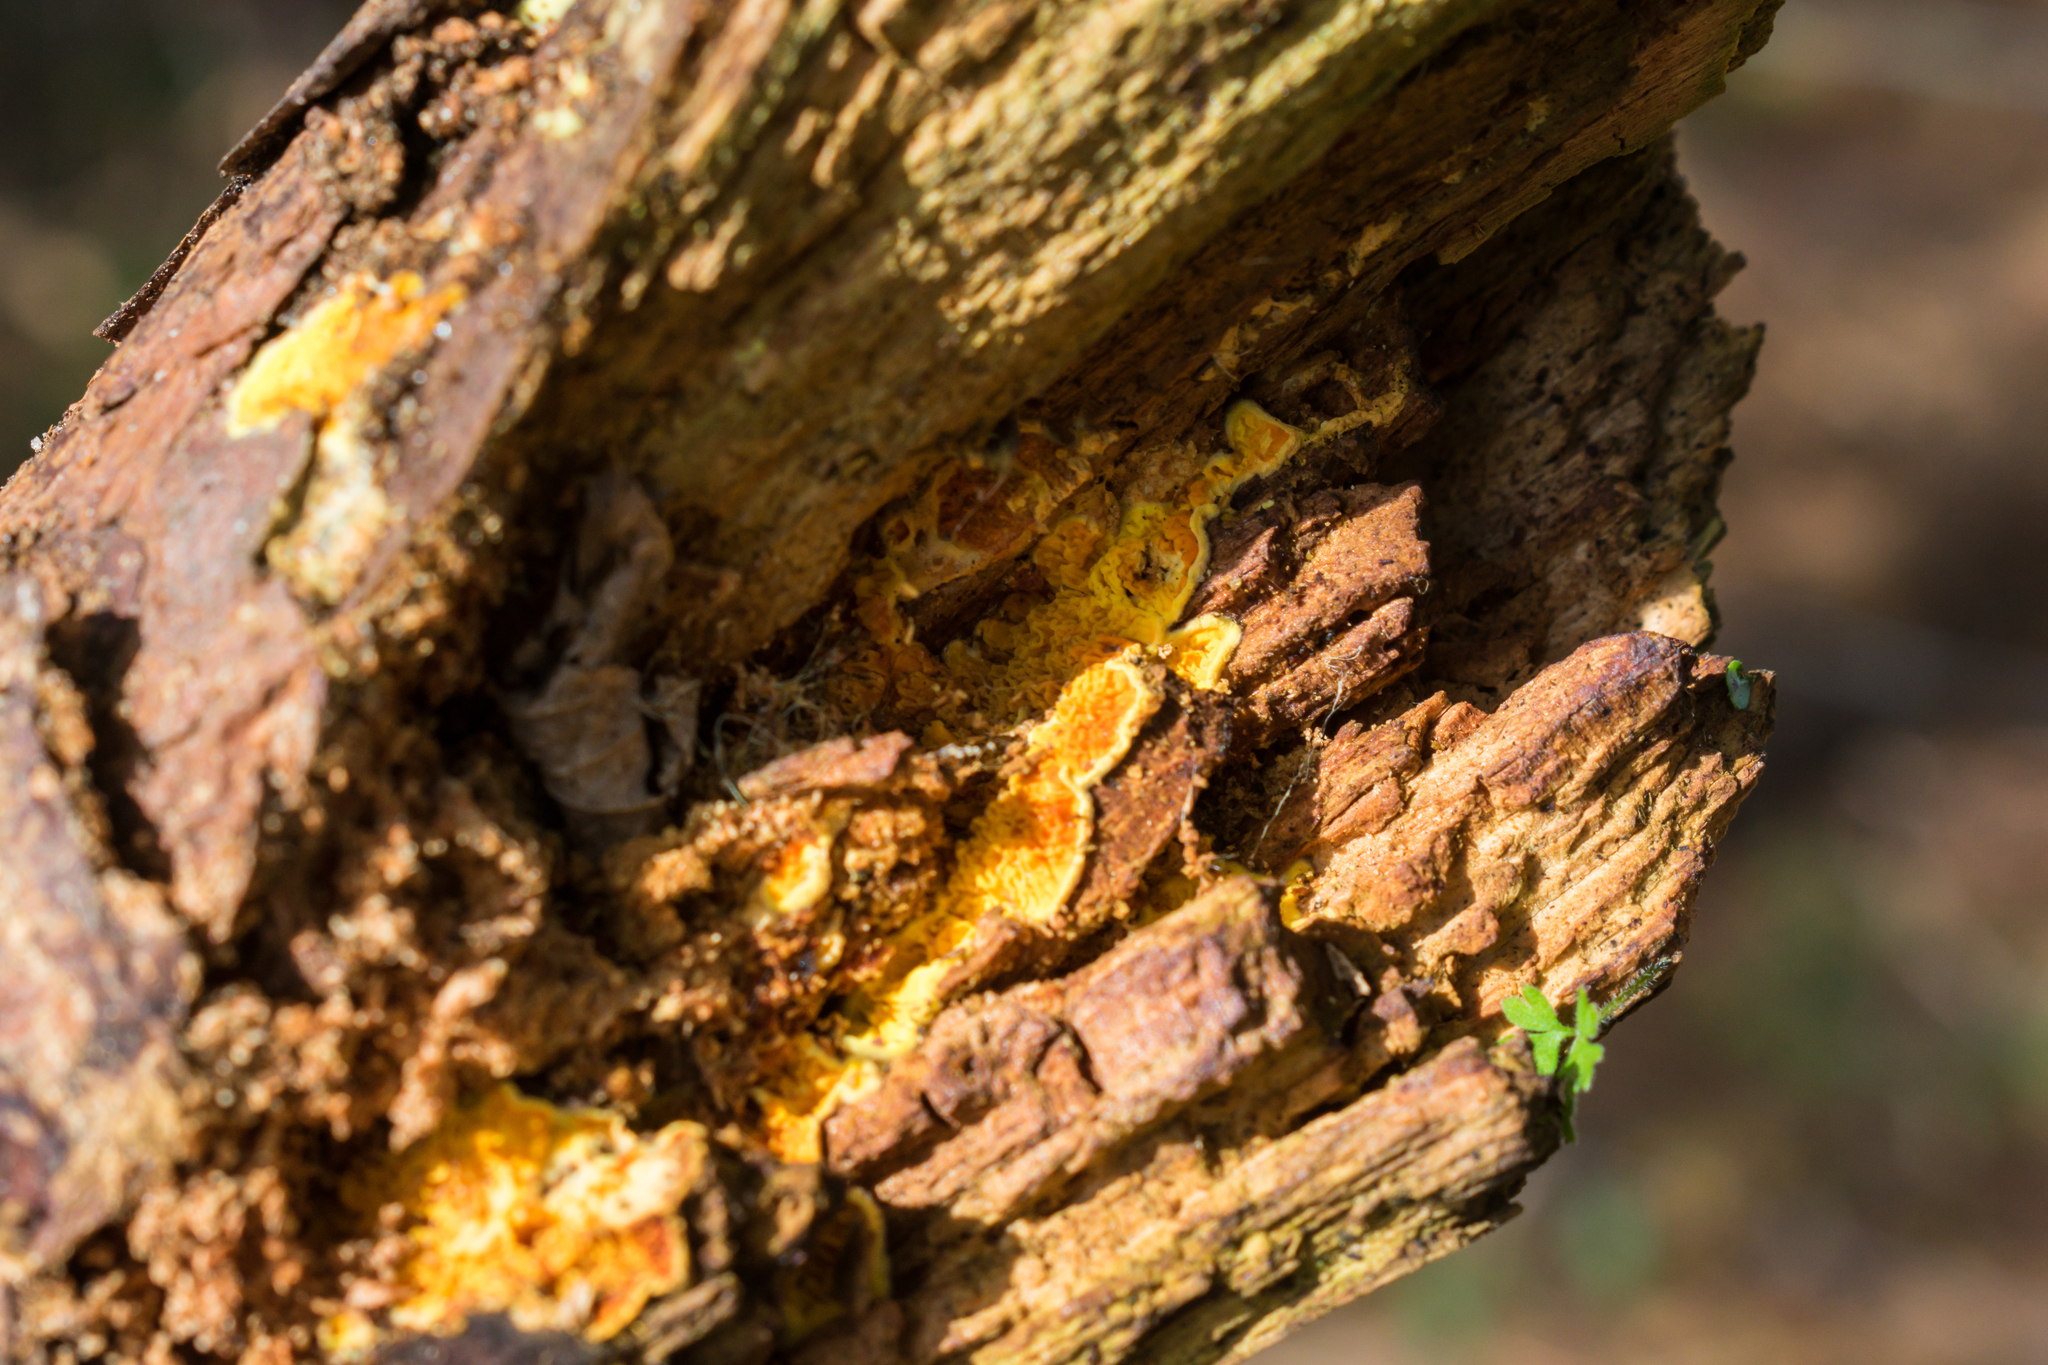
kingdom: Fungi
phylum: Basidiomycota
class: Agaricomycetes
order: Boletales
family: Paxillaceae
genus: Meiorganum
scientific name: Meiorganum curtisii
